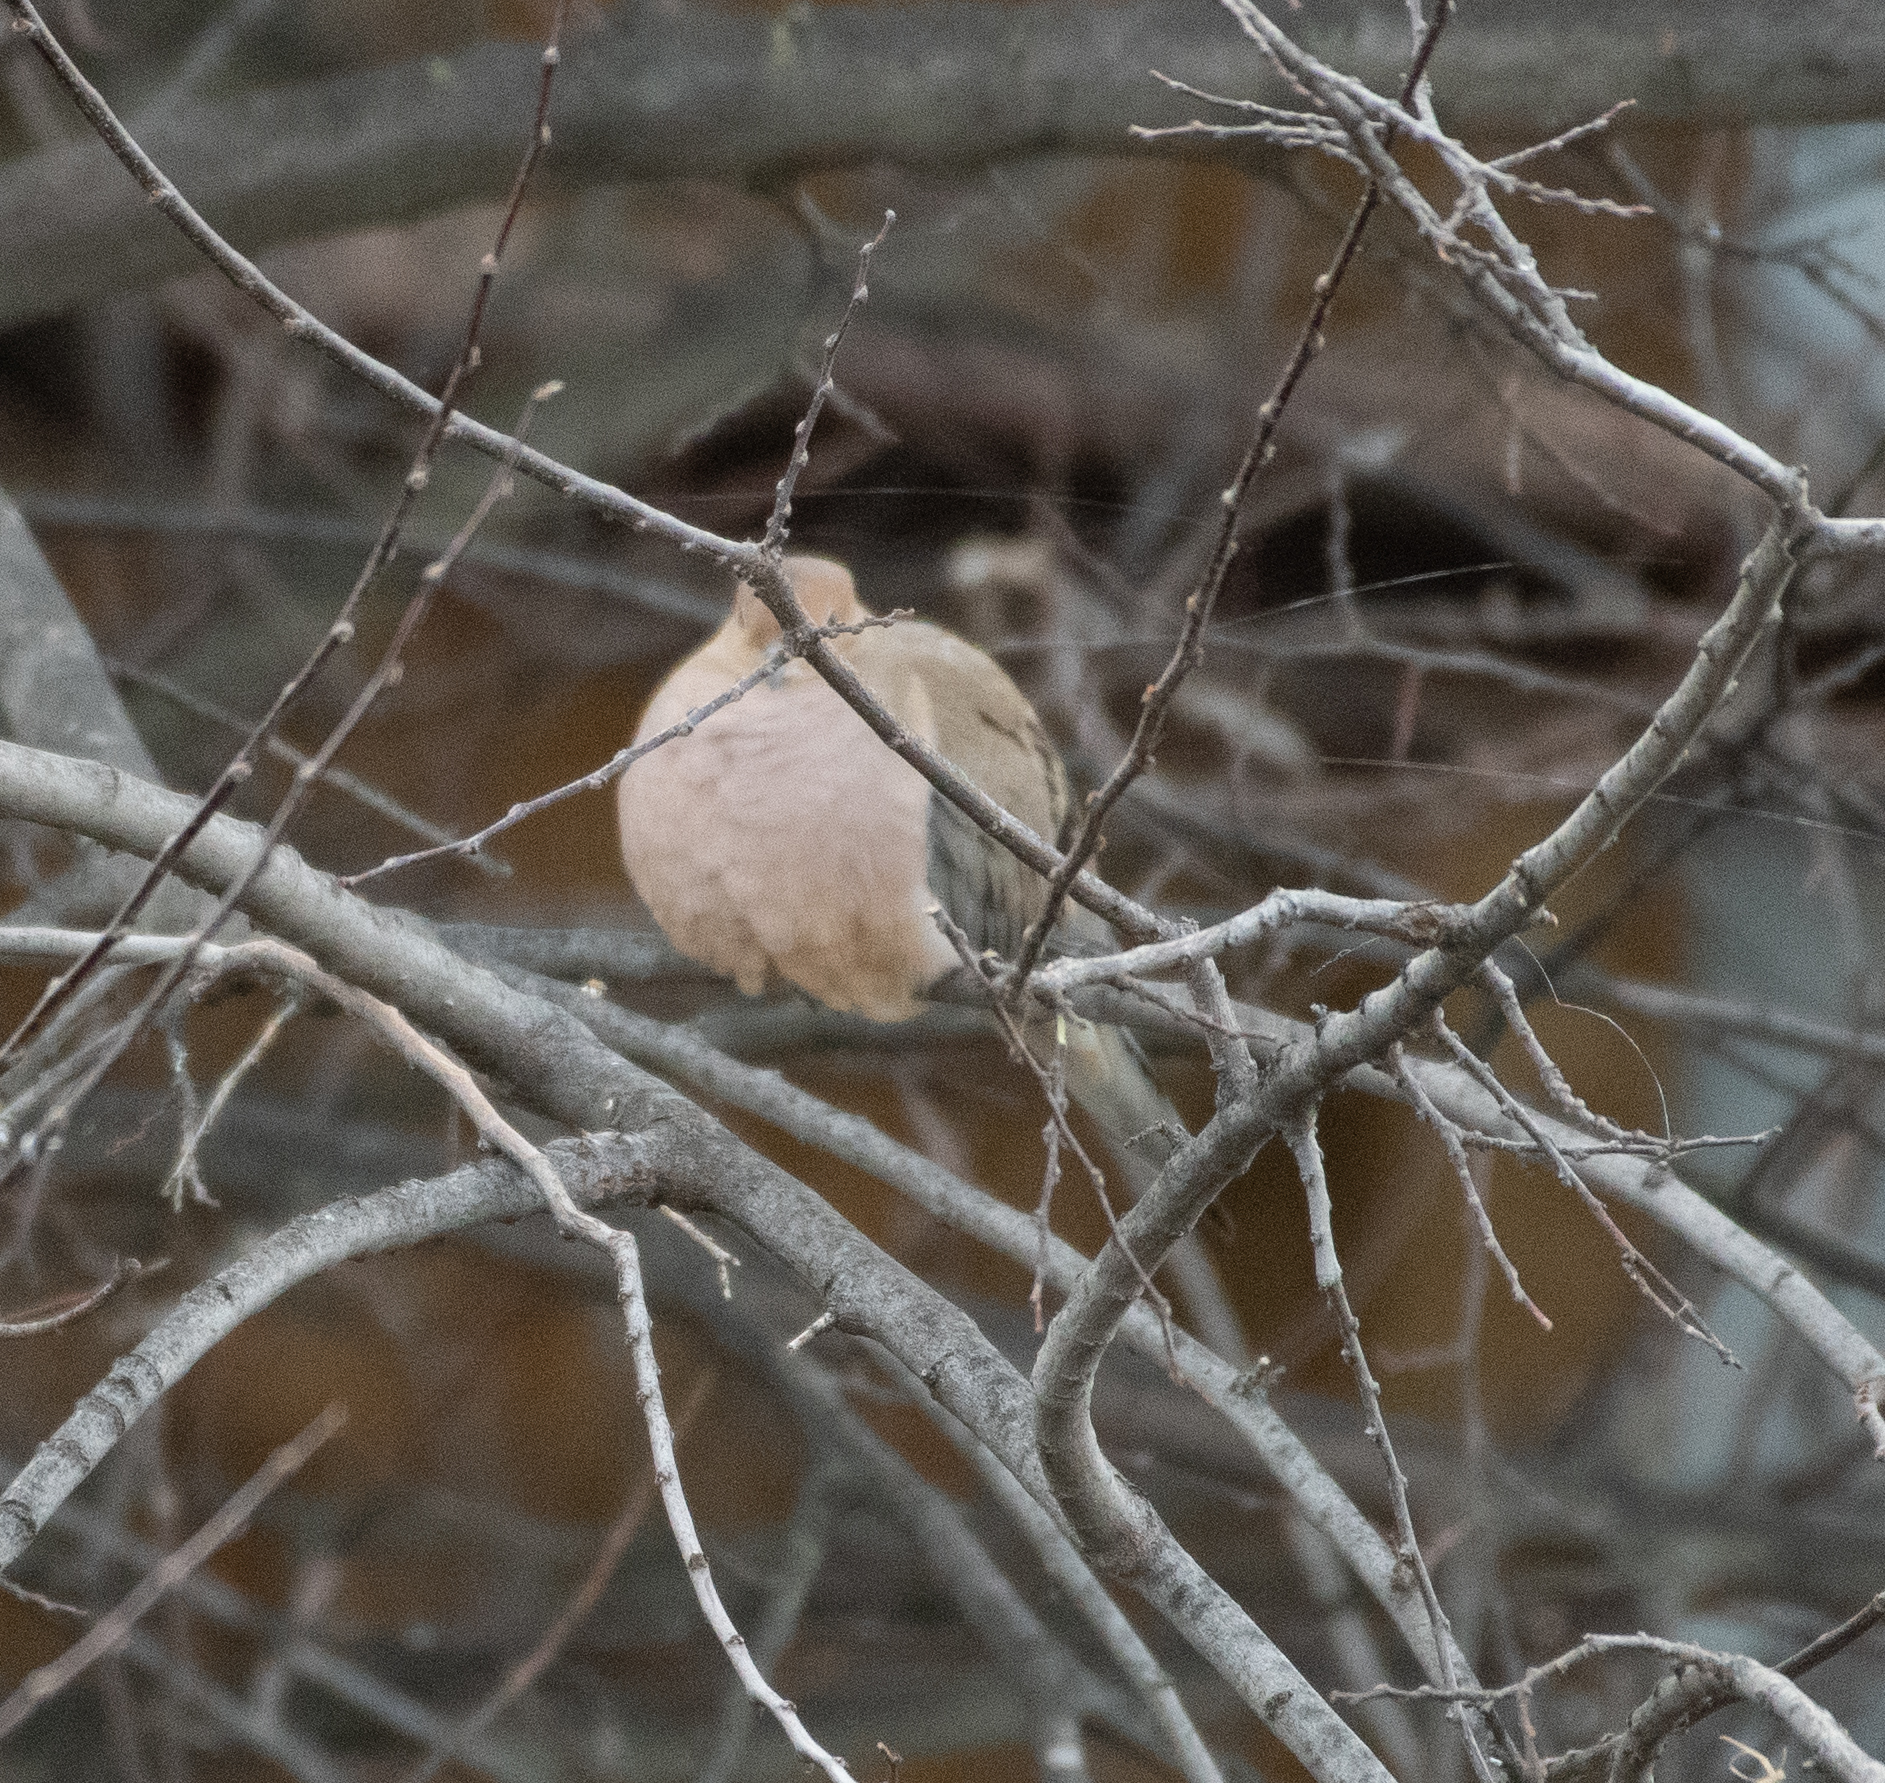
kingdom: Animalia
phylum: Chordata
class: Aves
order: Columbiformes
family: Columbidae
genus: Zenaida
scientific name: Zenaida macroura
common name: Mourning dove
